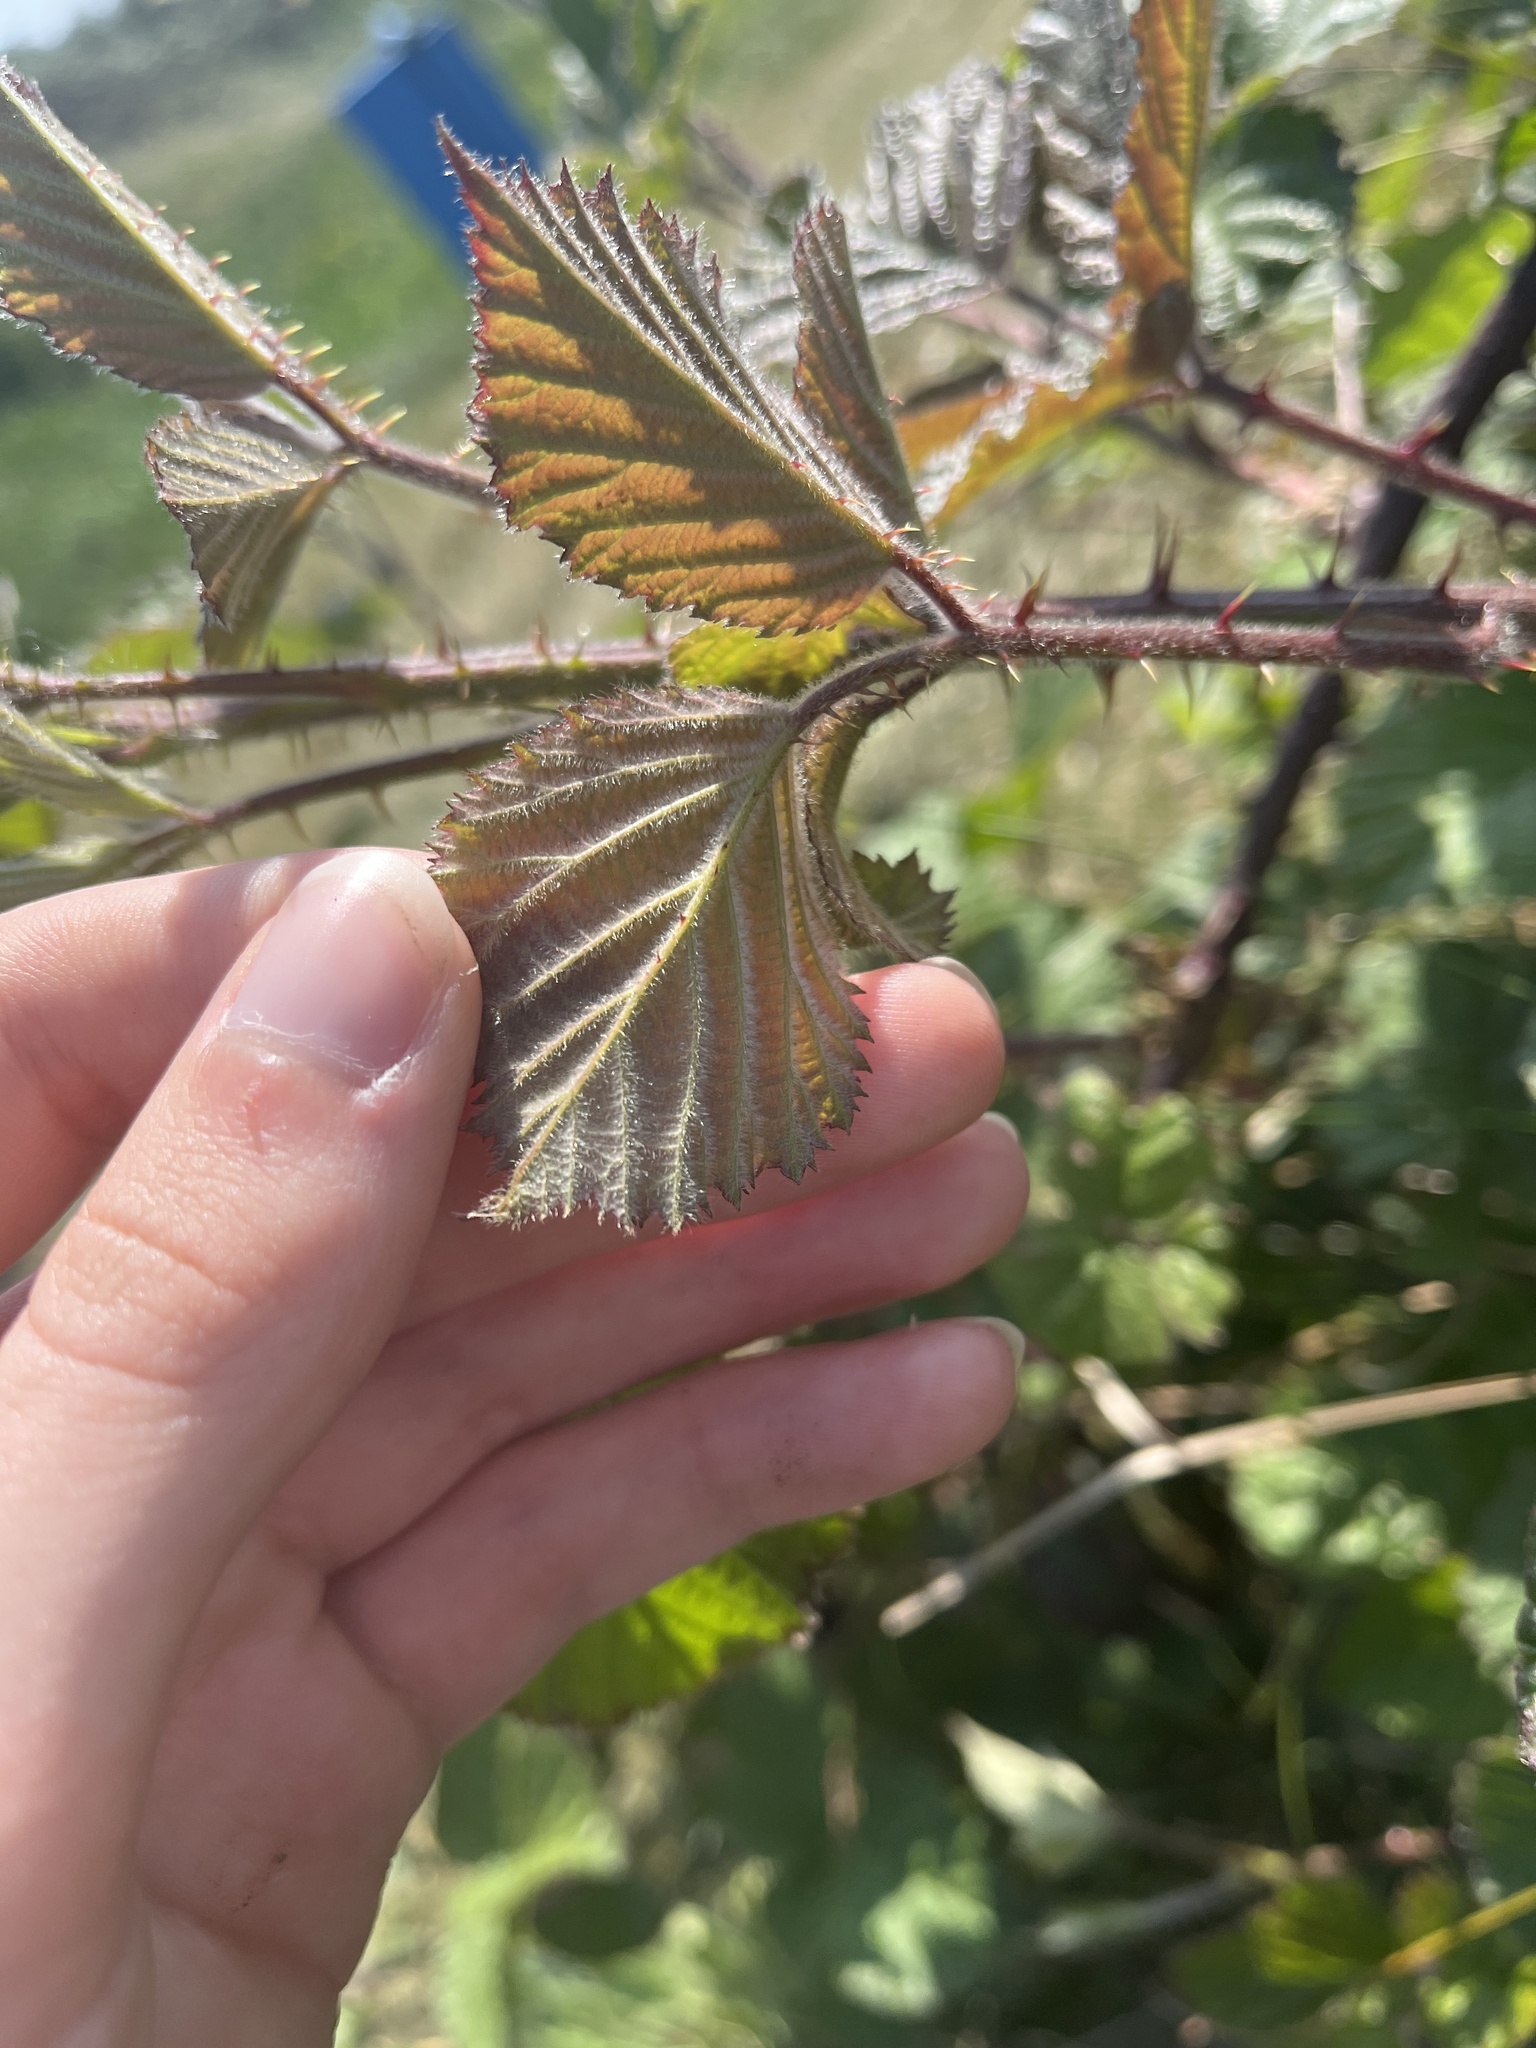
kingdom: Plantae
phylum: Tracheophyta
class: Magnoliopsida
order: Rosales
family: Rosaceae
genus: Rubus
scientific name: Rubus vestitus
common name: European blackberry
